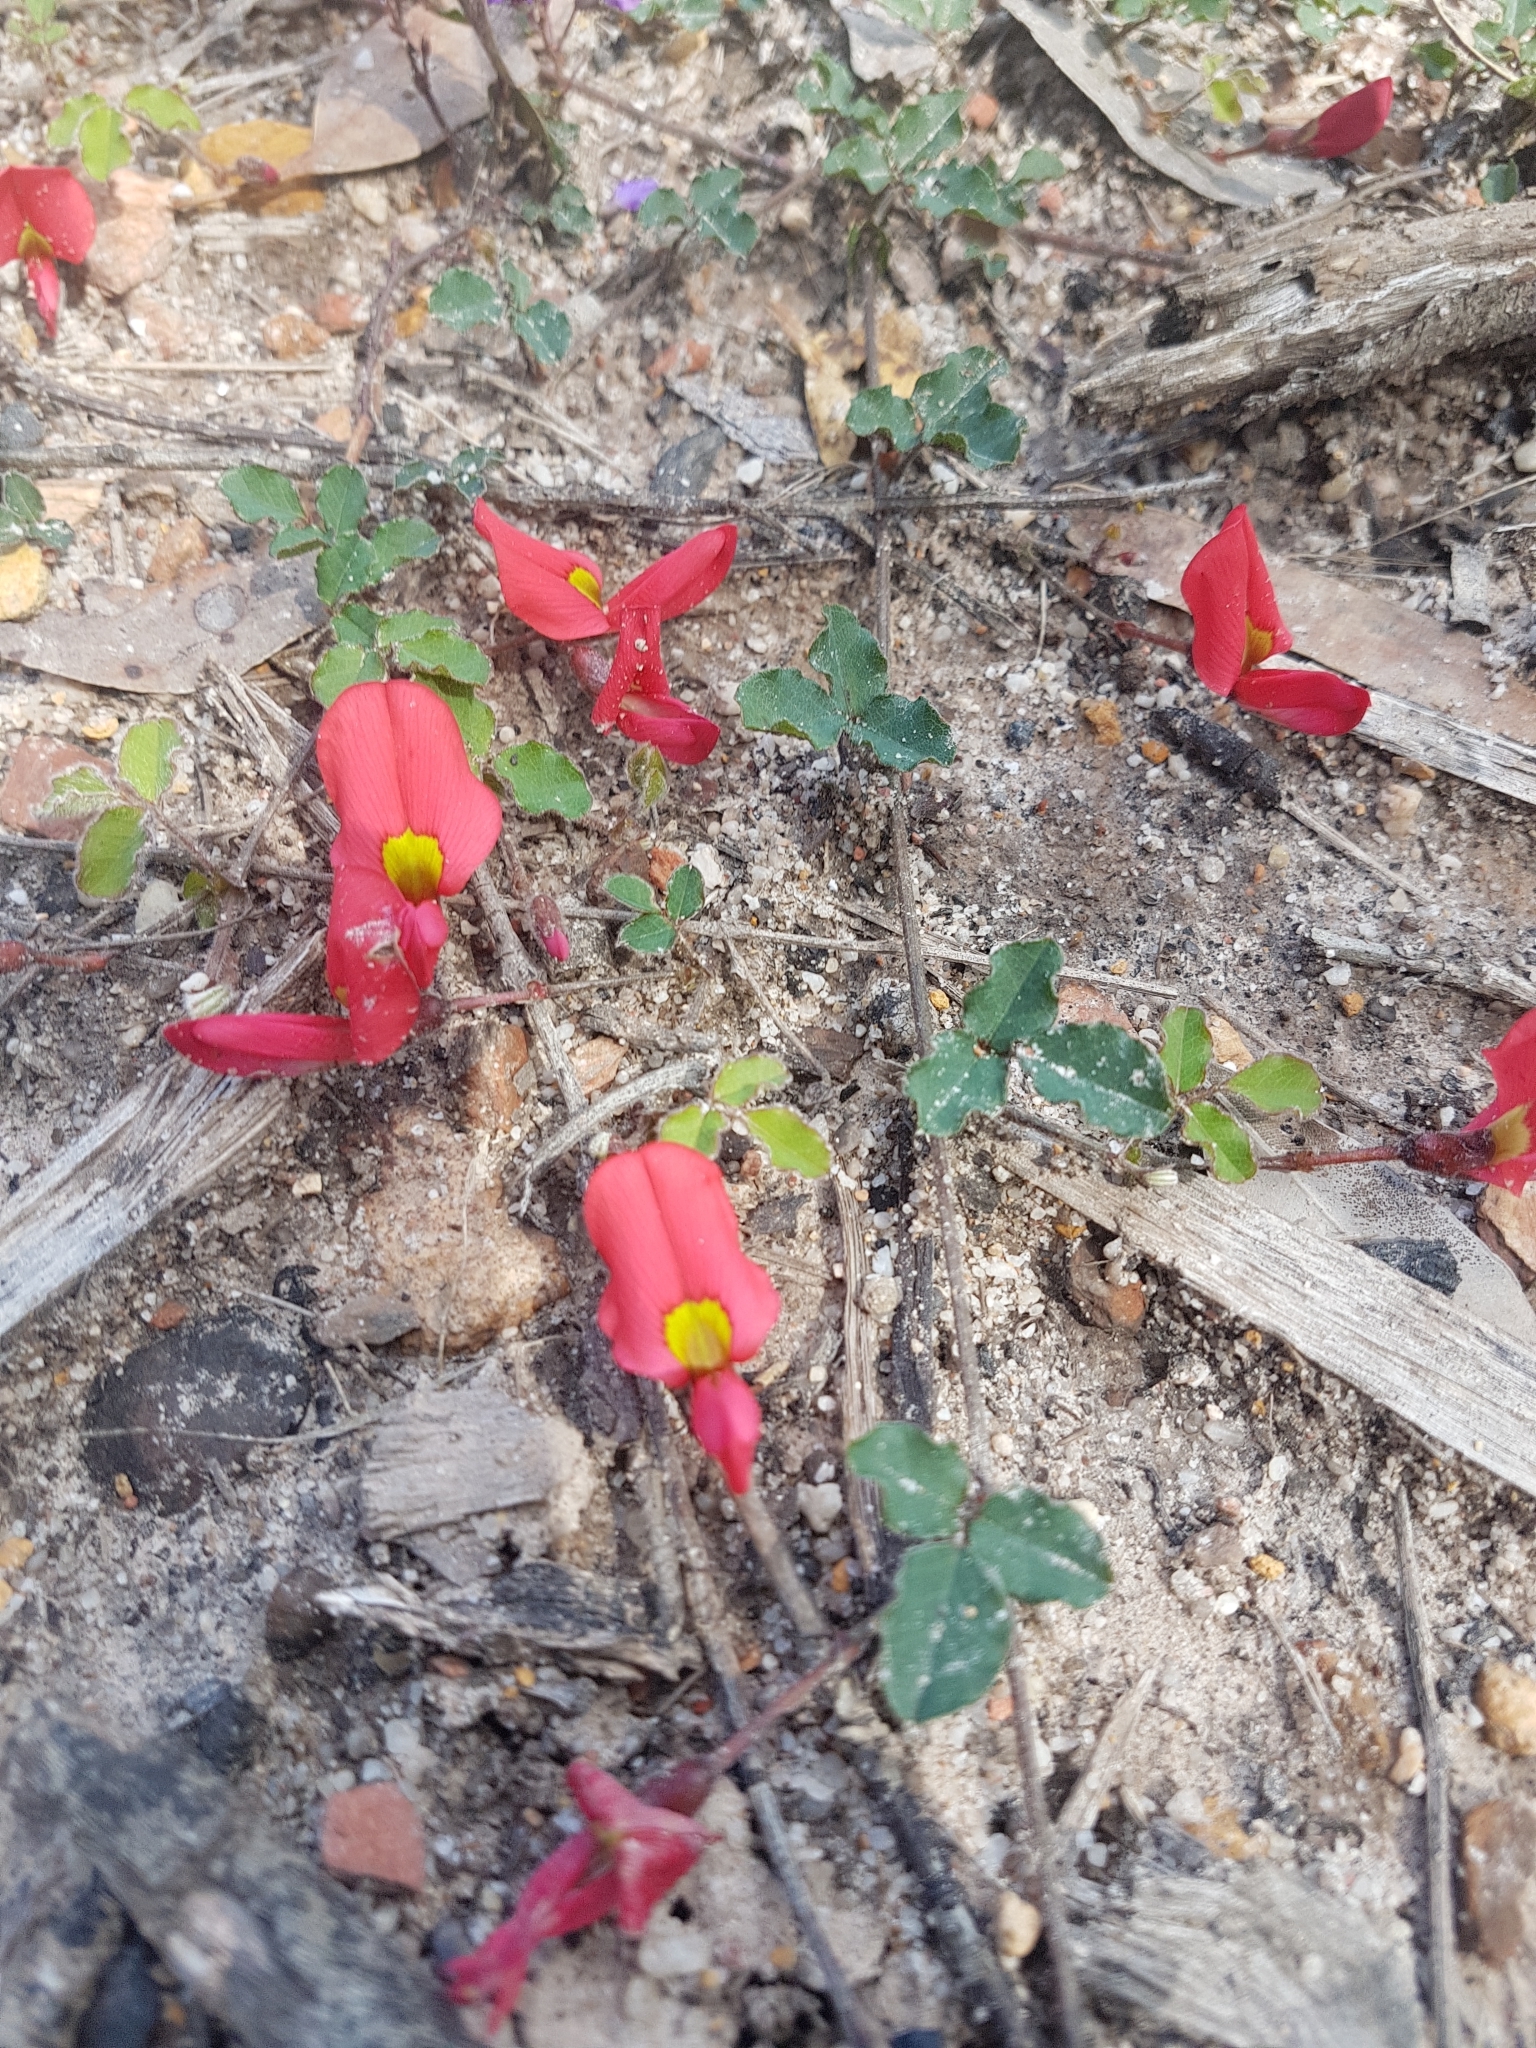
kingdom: Plantae
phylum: Tracheophyta
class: Magnoliopsida
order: Fabales
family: Fabaceae
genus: Kennedia
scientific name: Kennedia prostrata
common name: Running-postman
